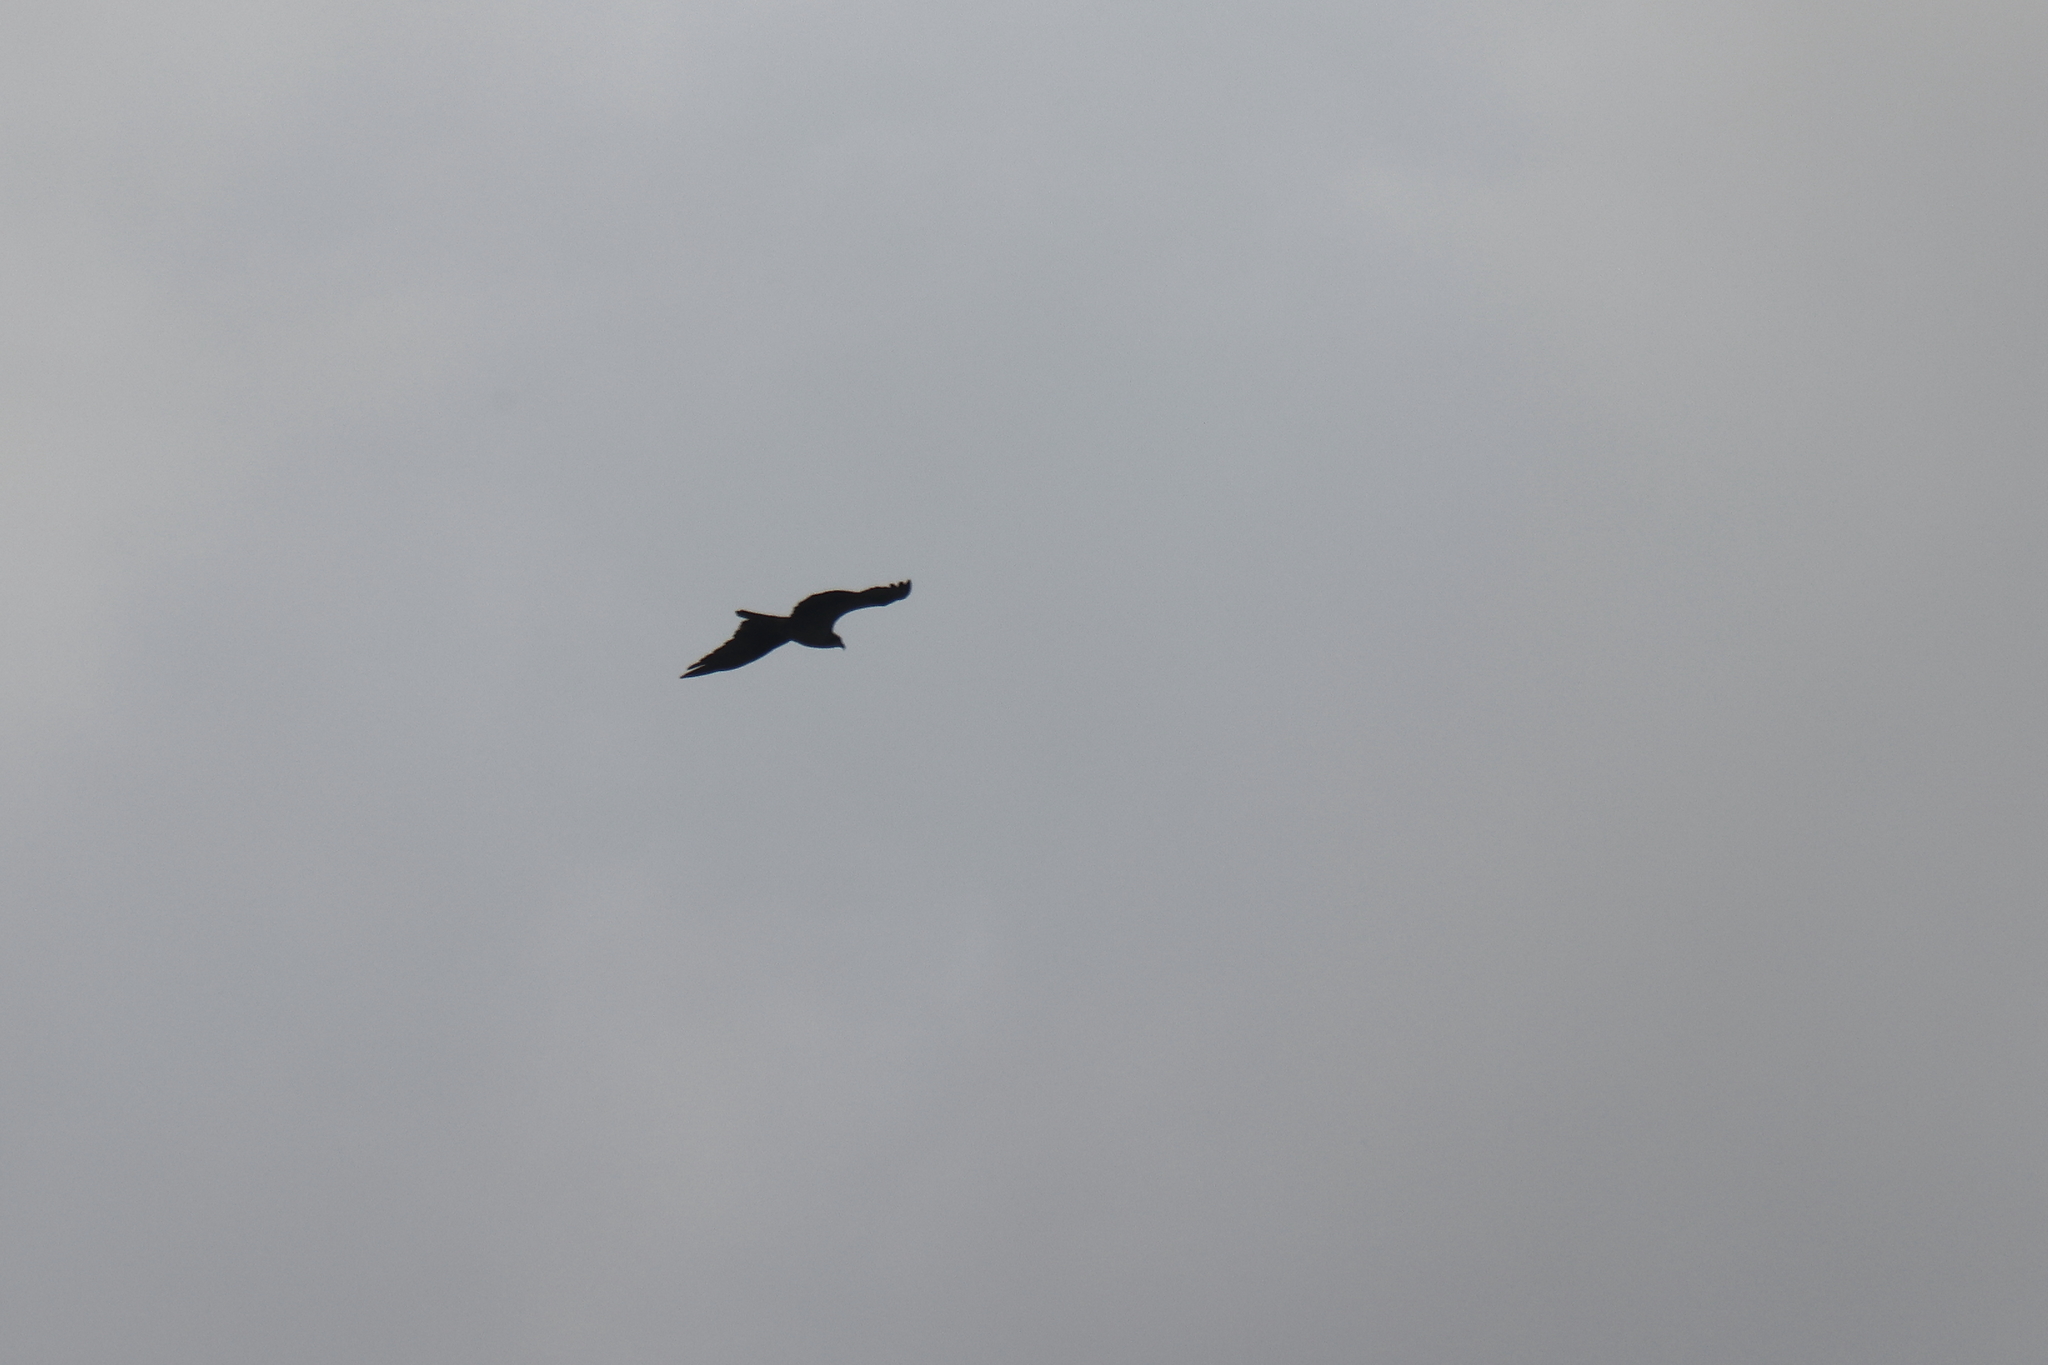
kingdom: Animalia
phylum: Chordata
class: Aves
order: Accipitriformes
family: Pandionidae
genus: Pandion
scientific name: Pandion haliaetus
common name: Osprey
